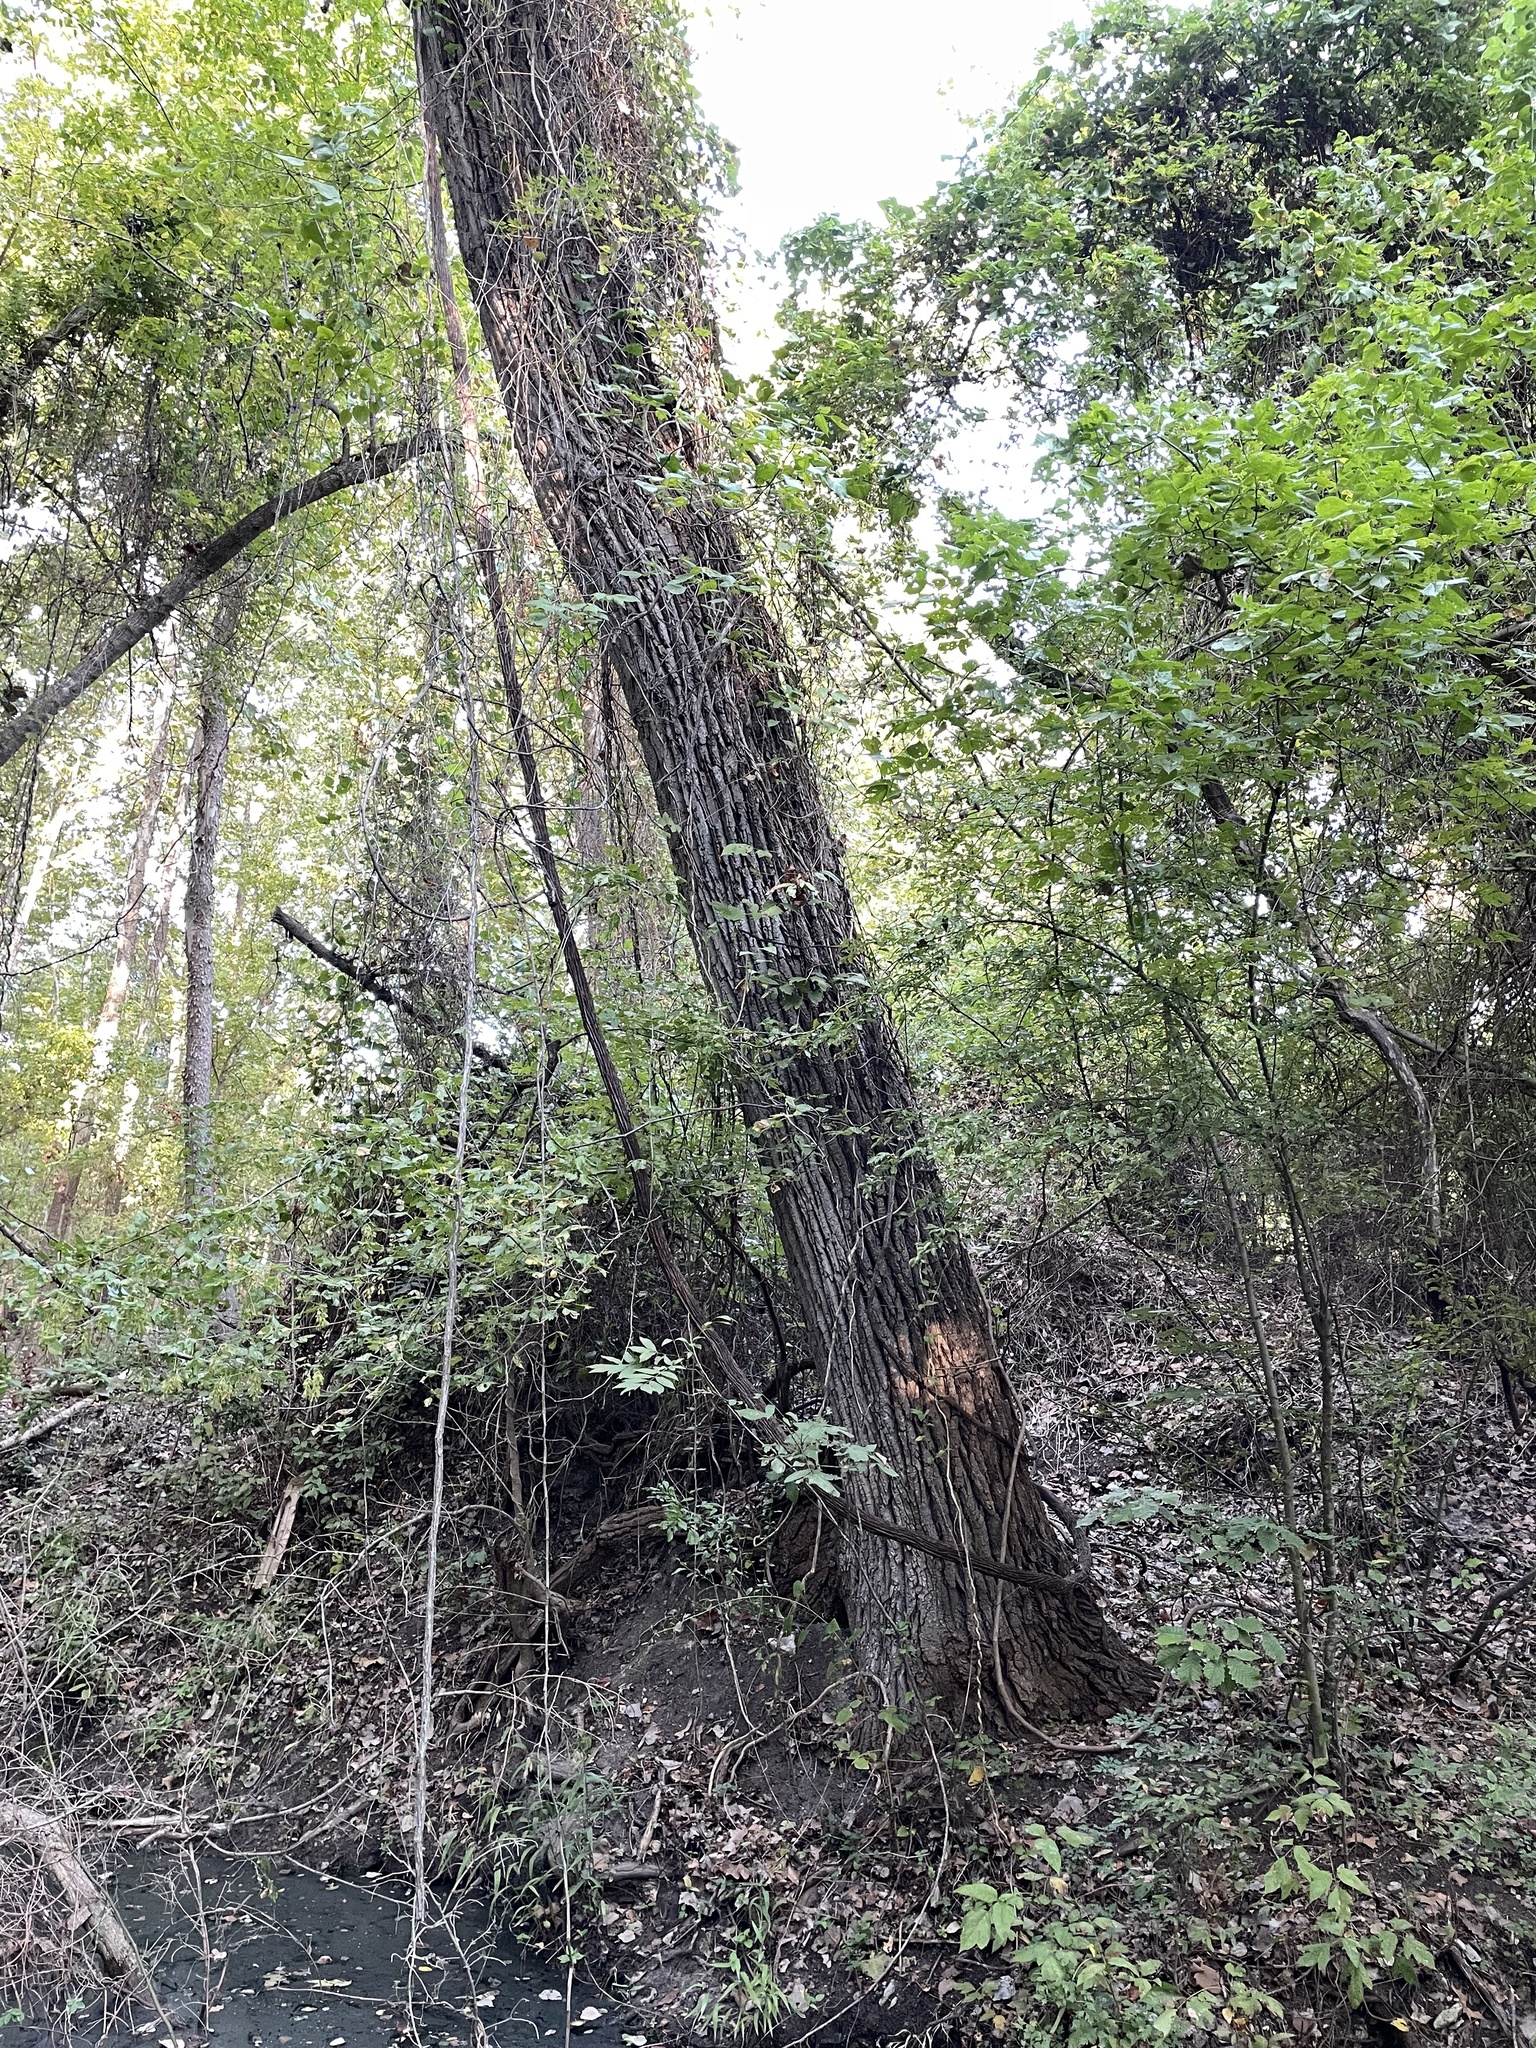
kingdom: Plantae
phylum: Tracheophyta
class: Magnoliopsida
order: Malpighiales
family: Salicaceae
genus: Populus
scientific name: Populus deltoides
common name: Eastern cottonwood
